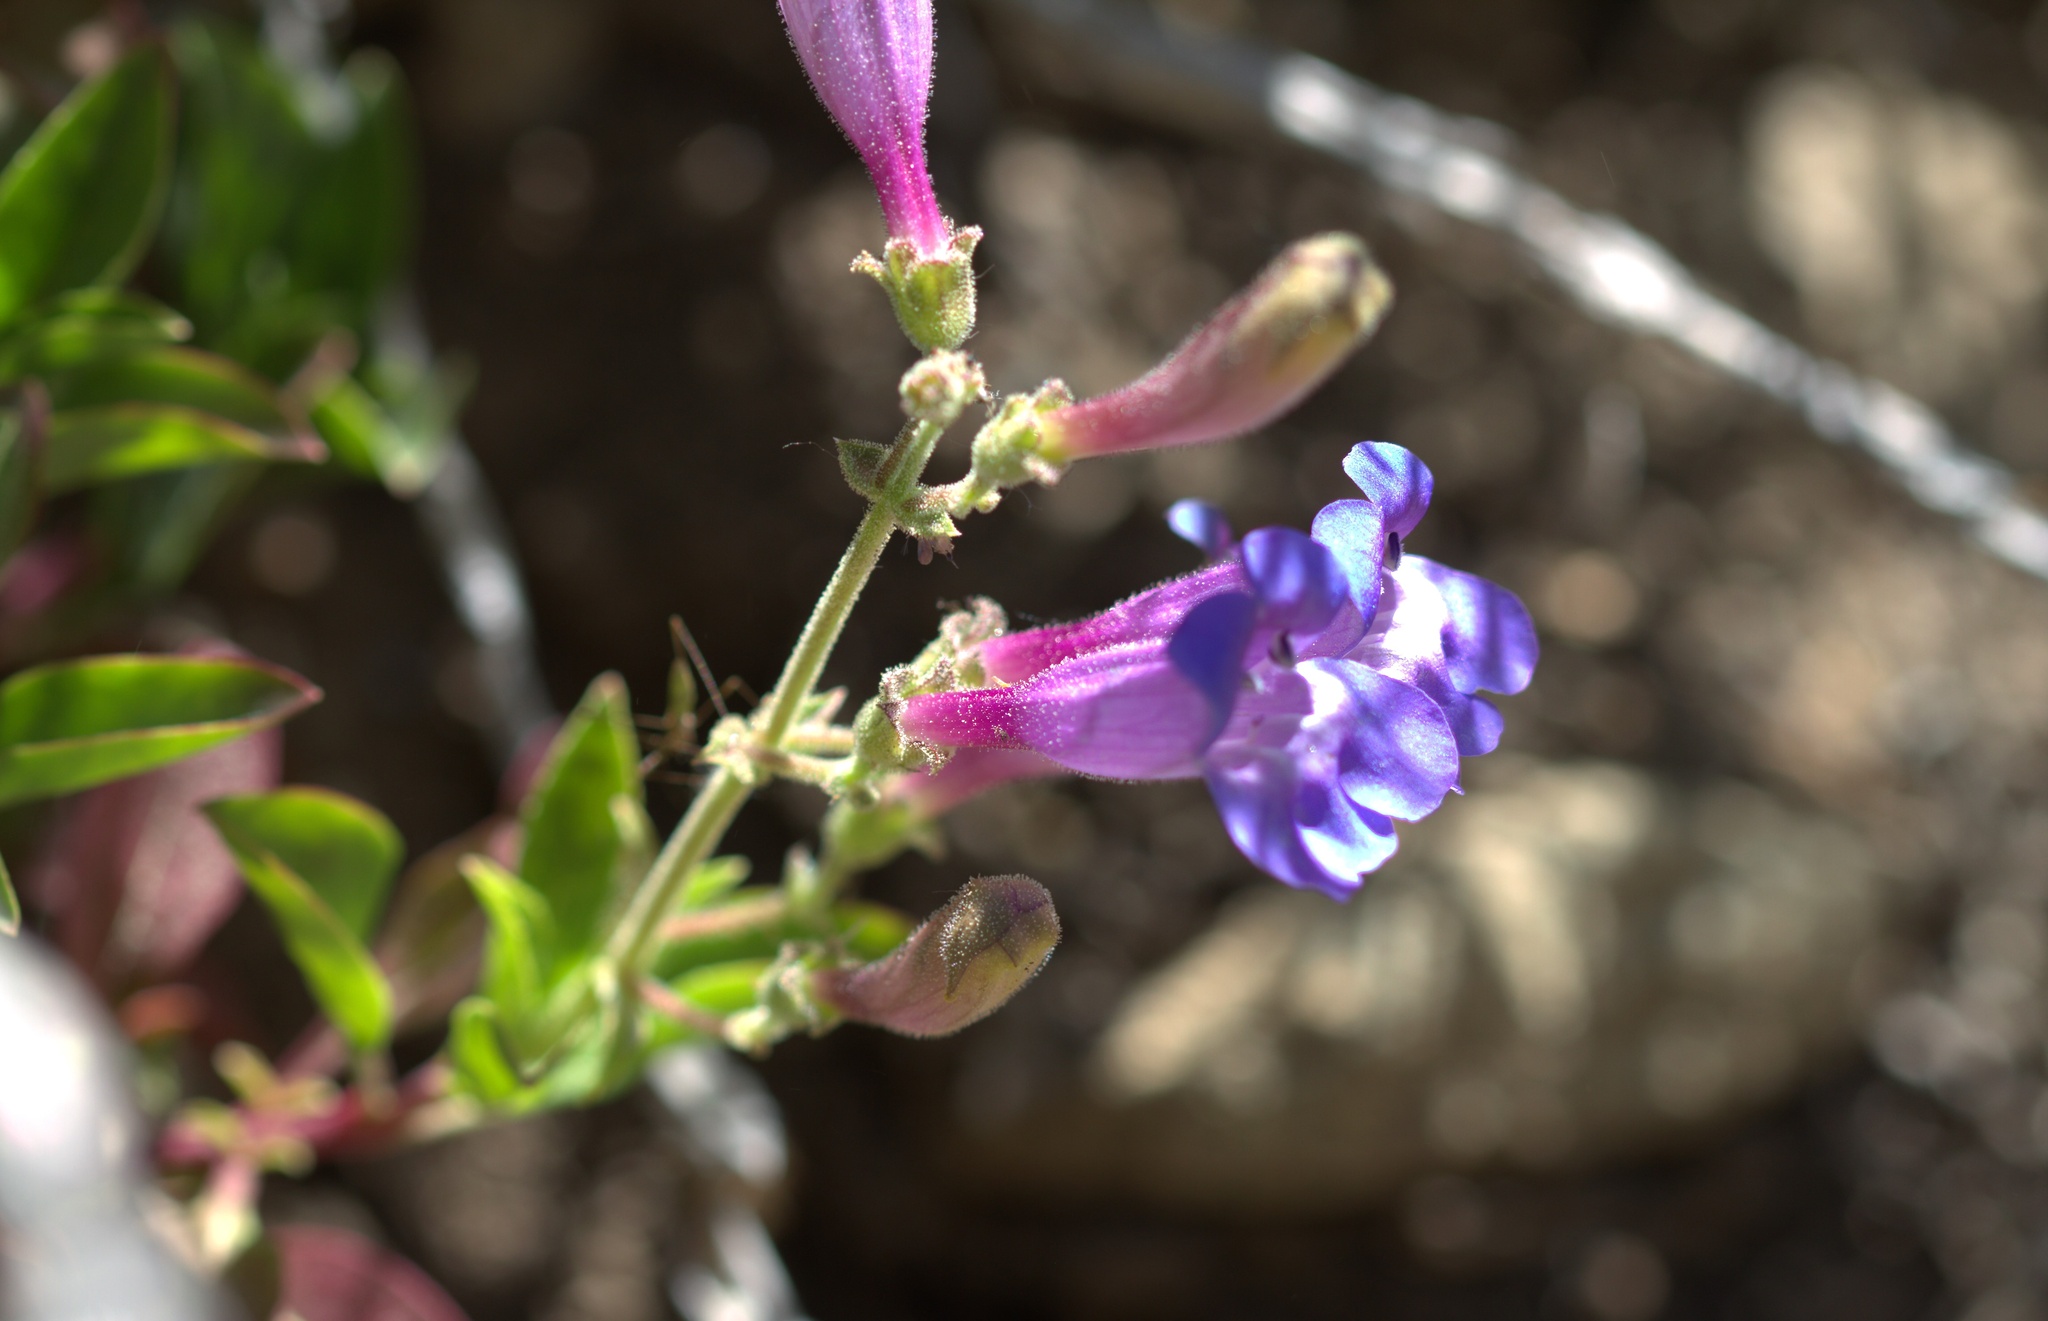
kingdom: Plantae
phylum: Tracheophyta
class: Magnoliopsida
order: Lamiales
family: Plantaginaceae
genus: Penstemon
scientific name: Penstemon laetus
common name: Gay penstemon
